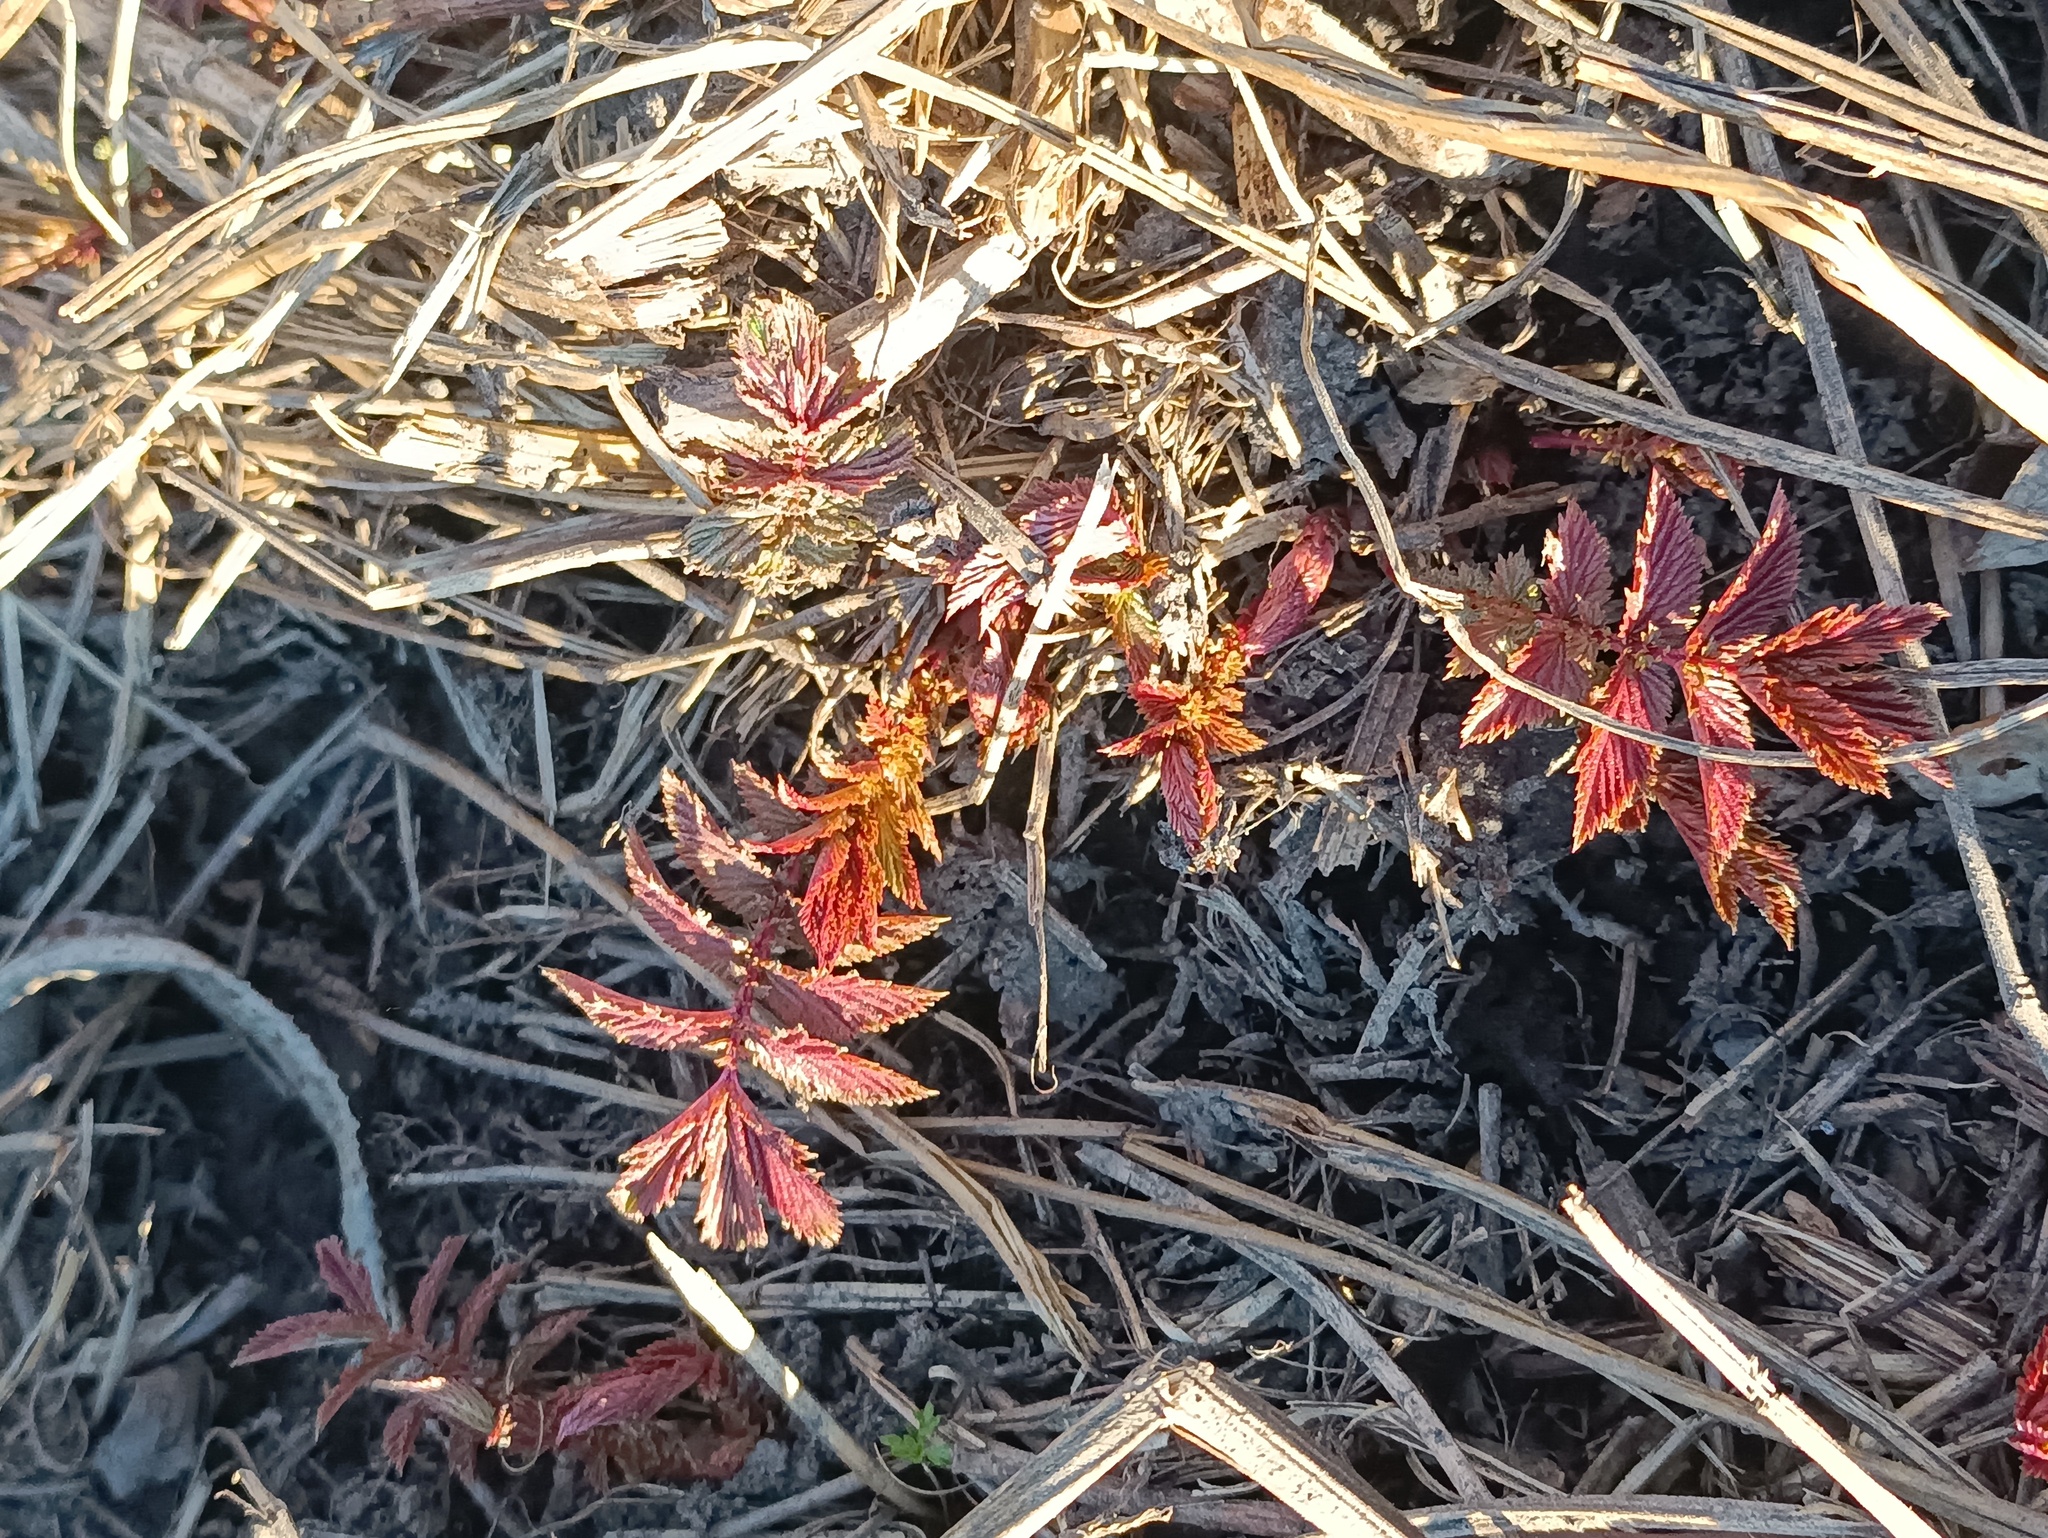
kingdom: Plantae
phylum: Tracheophyta
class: Magnoliopsida
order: Rosales
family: Rosaceae
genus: Filipendula
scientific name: Filipendula ulmaria
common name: Meadowsweet
